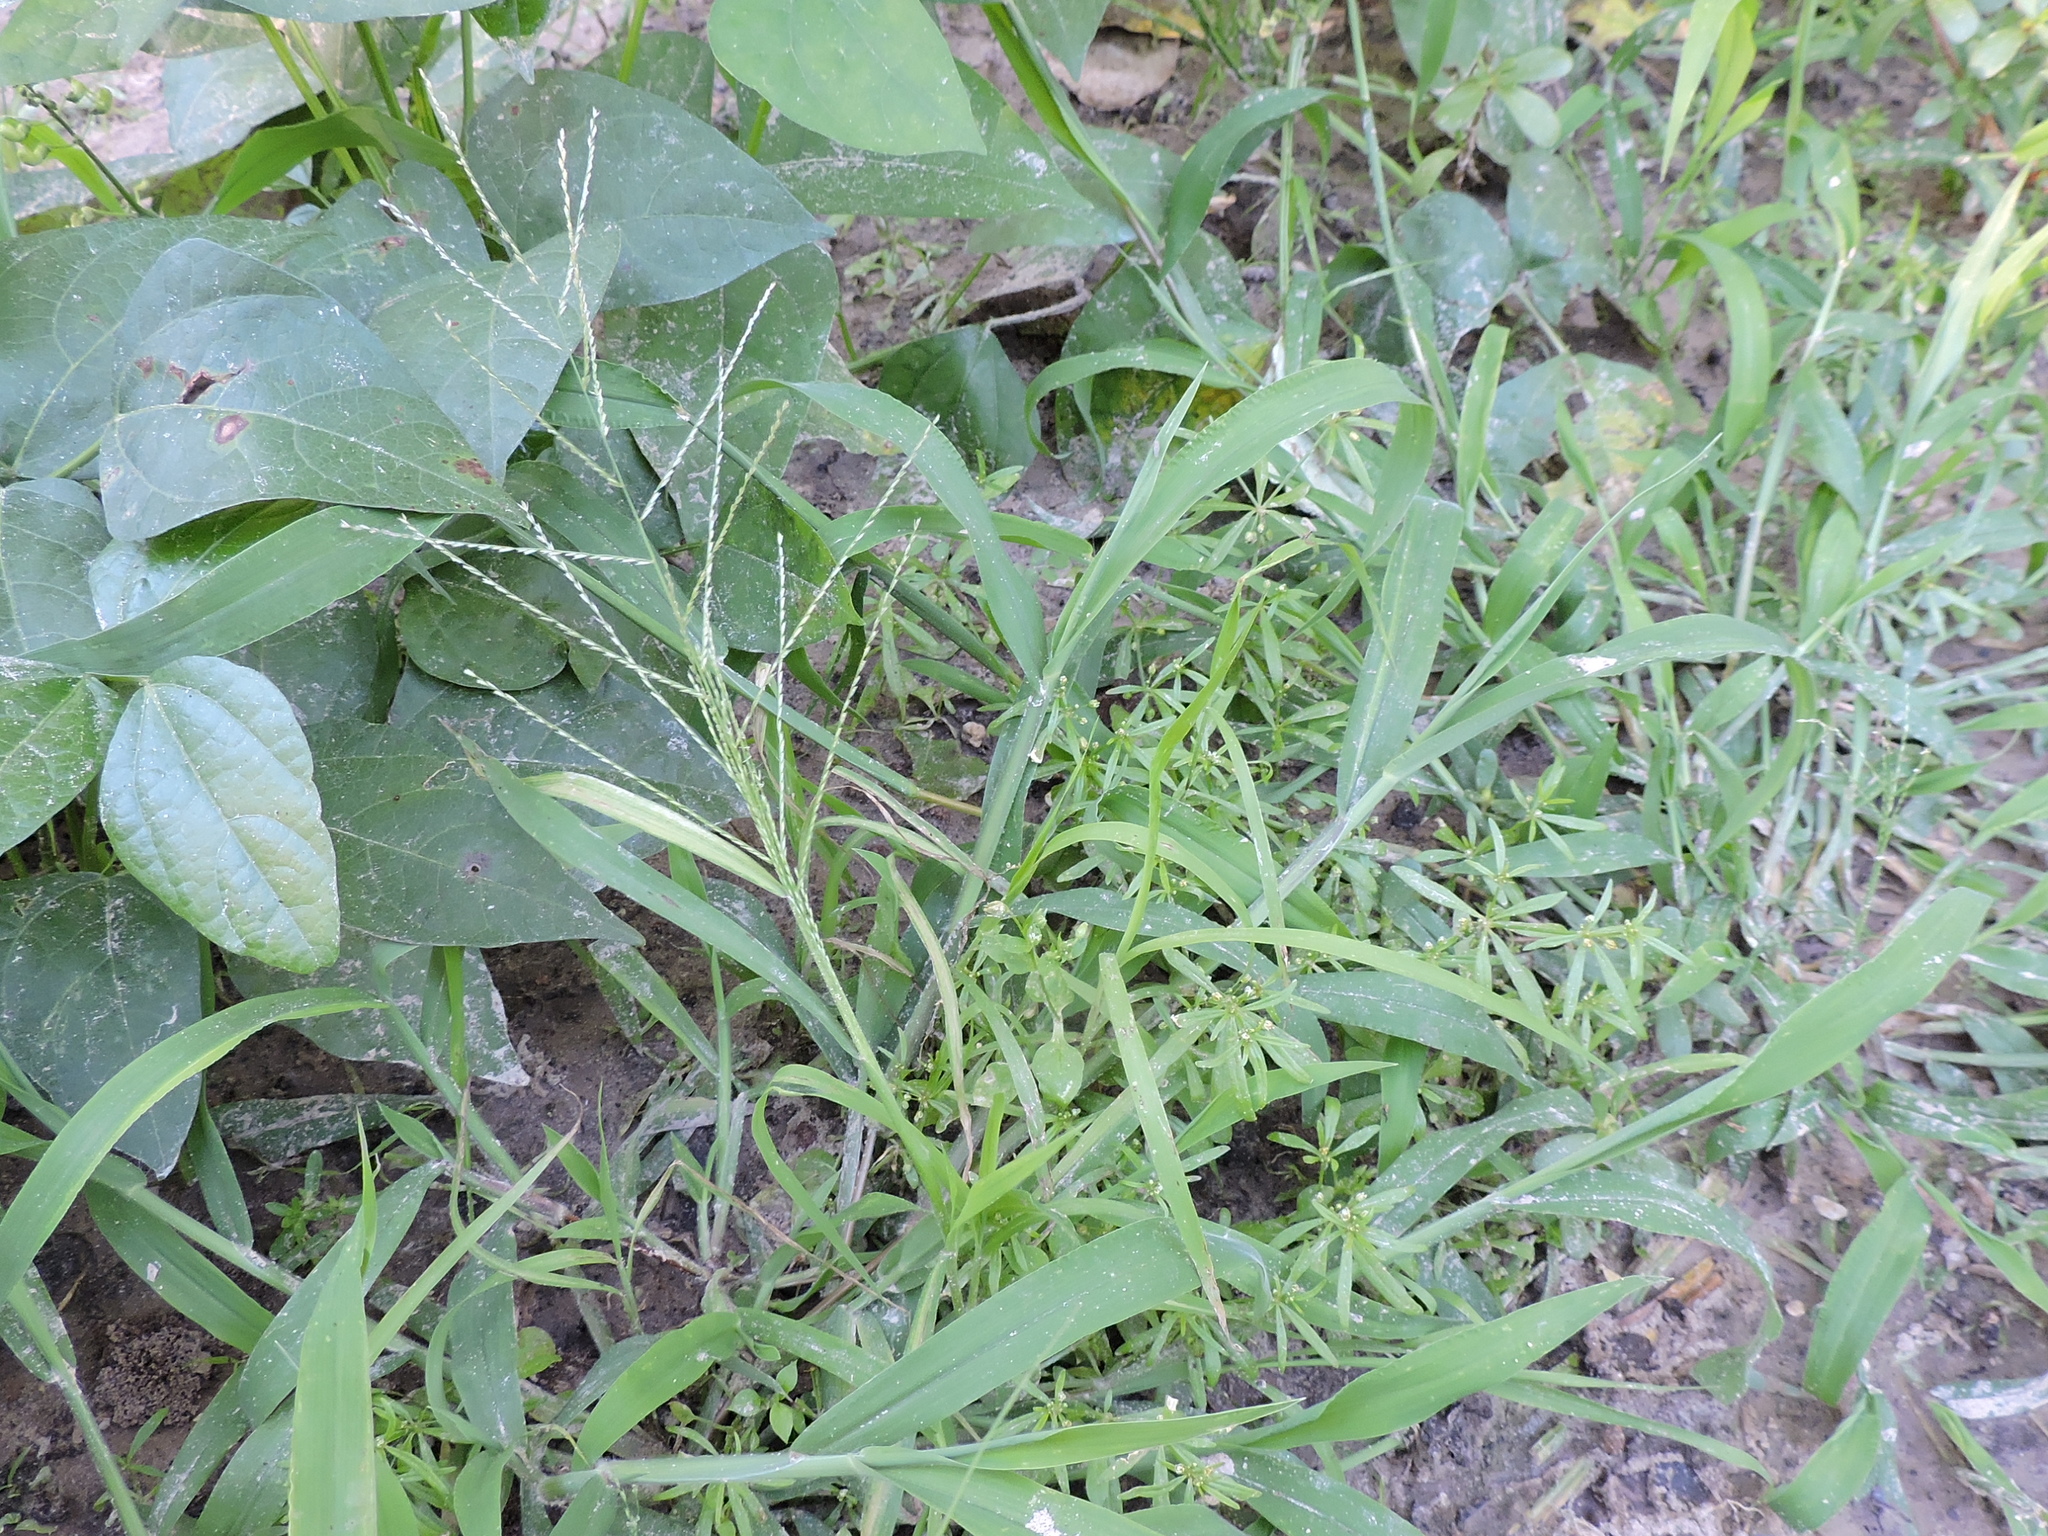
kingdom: Plantae
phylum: Tracheophyta
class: Liliopsida
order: Poales
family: Poaceae
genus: Leptochloa
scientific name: Leptochloa mucronata
